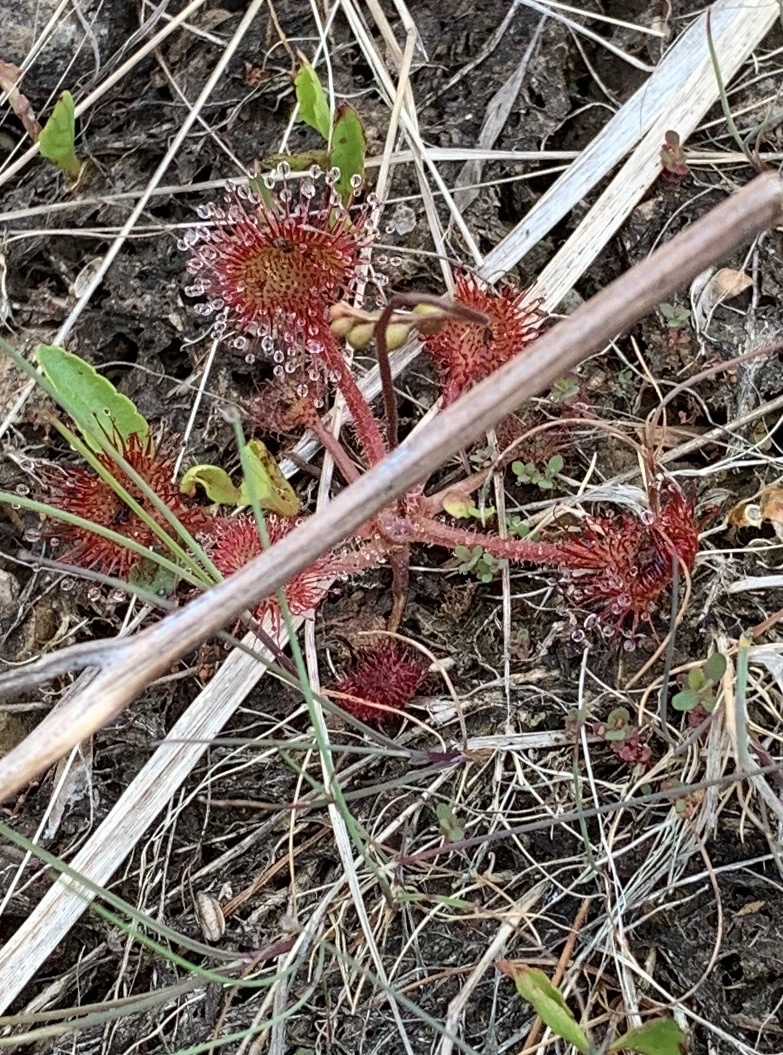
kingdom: Plantae
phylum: Tracheophyta
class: Magnoliopsida
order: Caryophyllales
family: Droseraceae
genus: Drosera
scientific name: Drosera rotundifolia
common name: Round-leaved sundew
